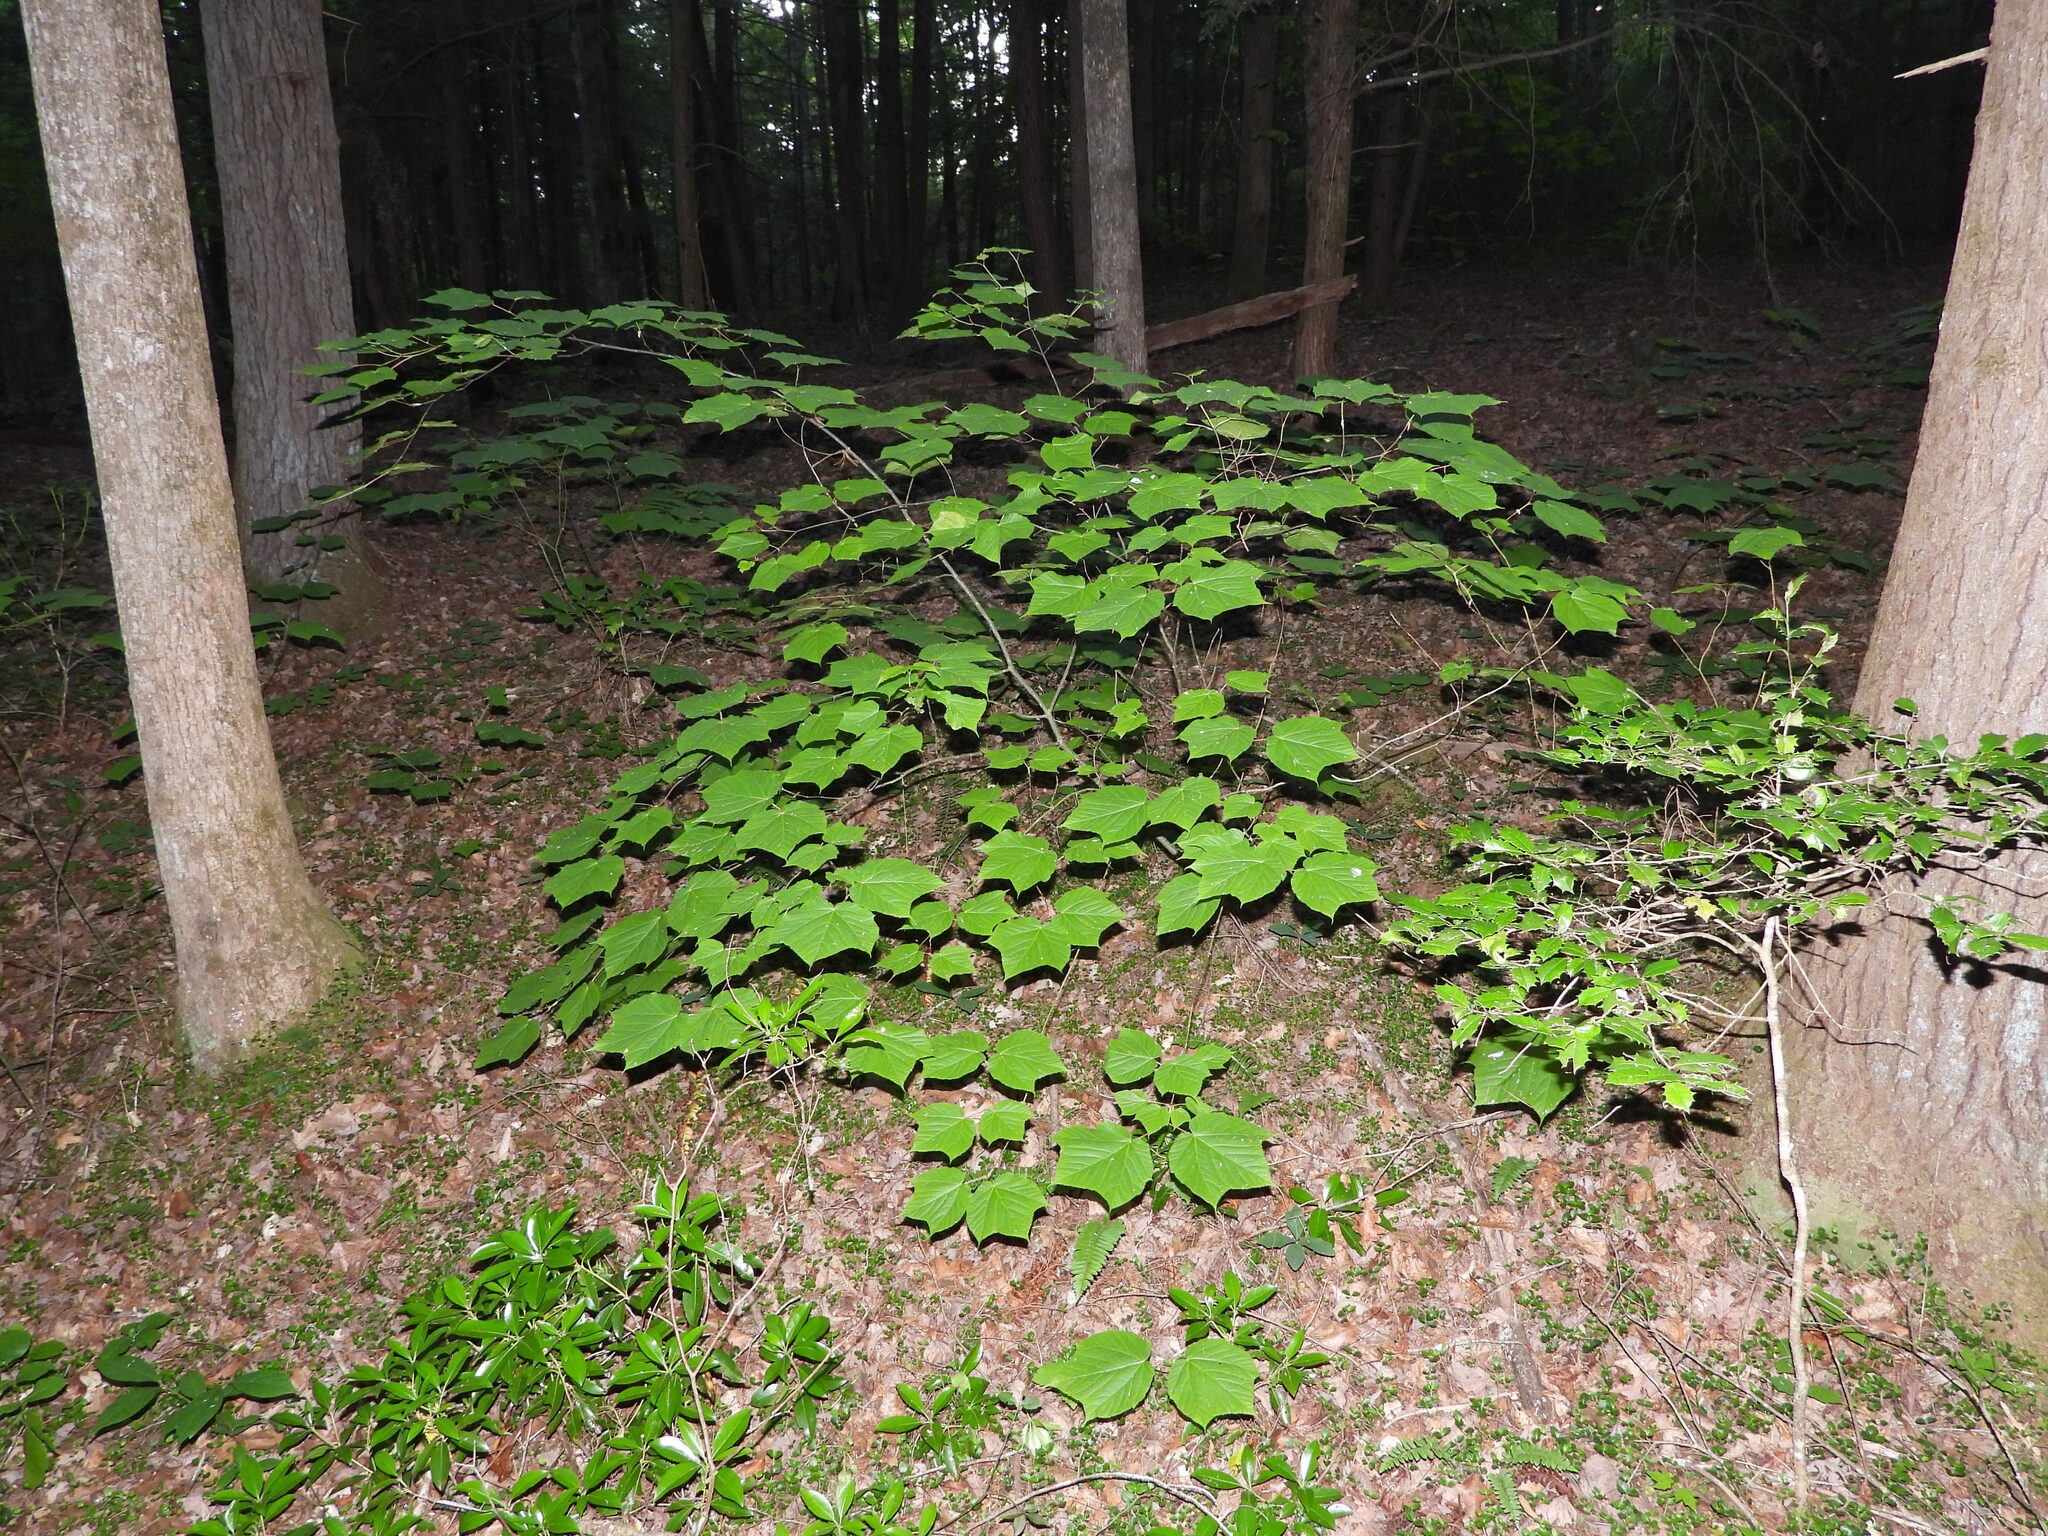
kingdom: Plantae
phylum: Tracheophyta
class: Magnoliopsida
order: Dipsacales
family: Viburnaceae
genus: Viburnum
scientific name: Viburnum acerifolium
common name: Dockmackie
